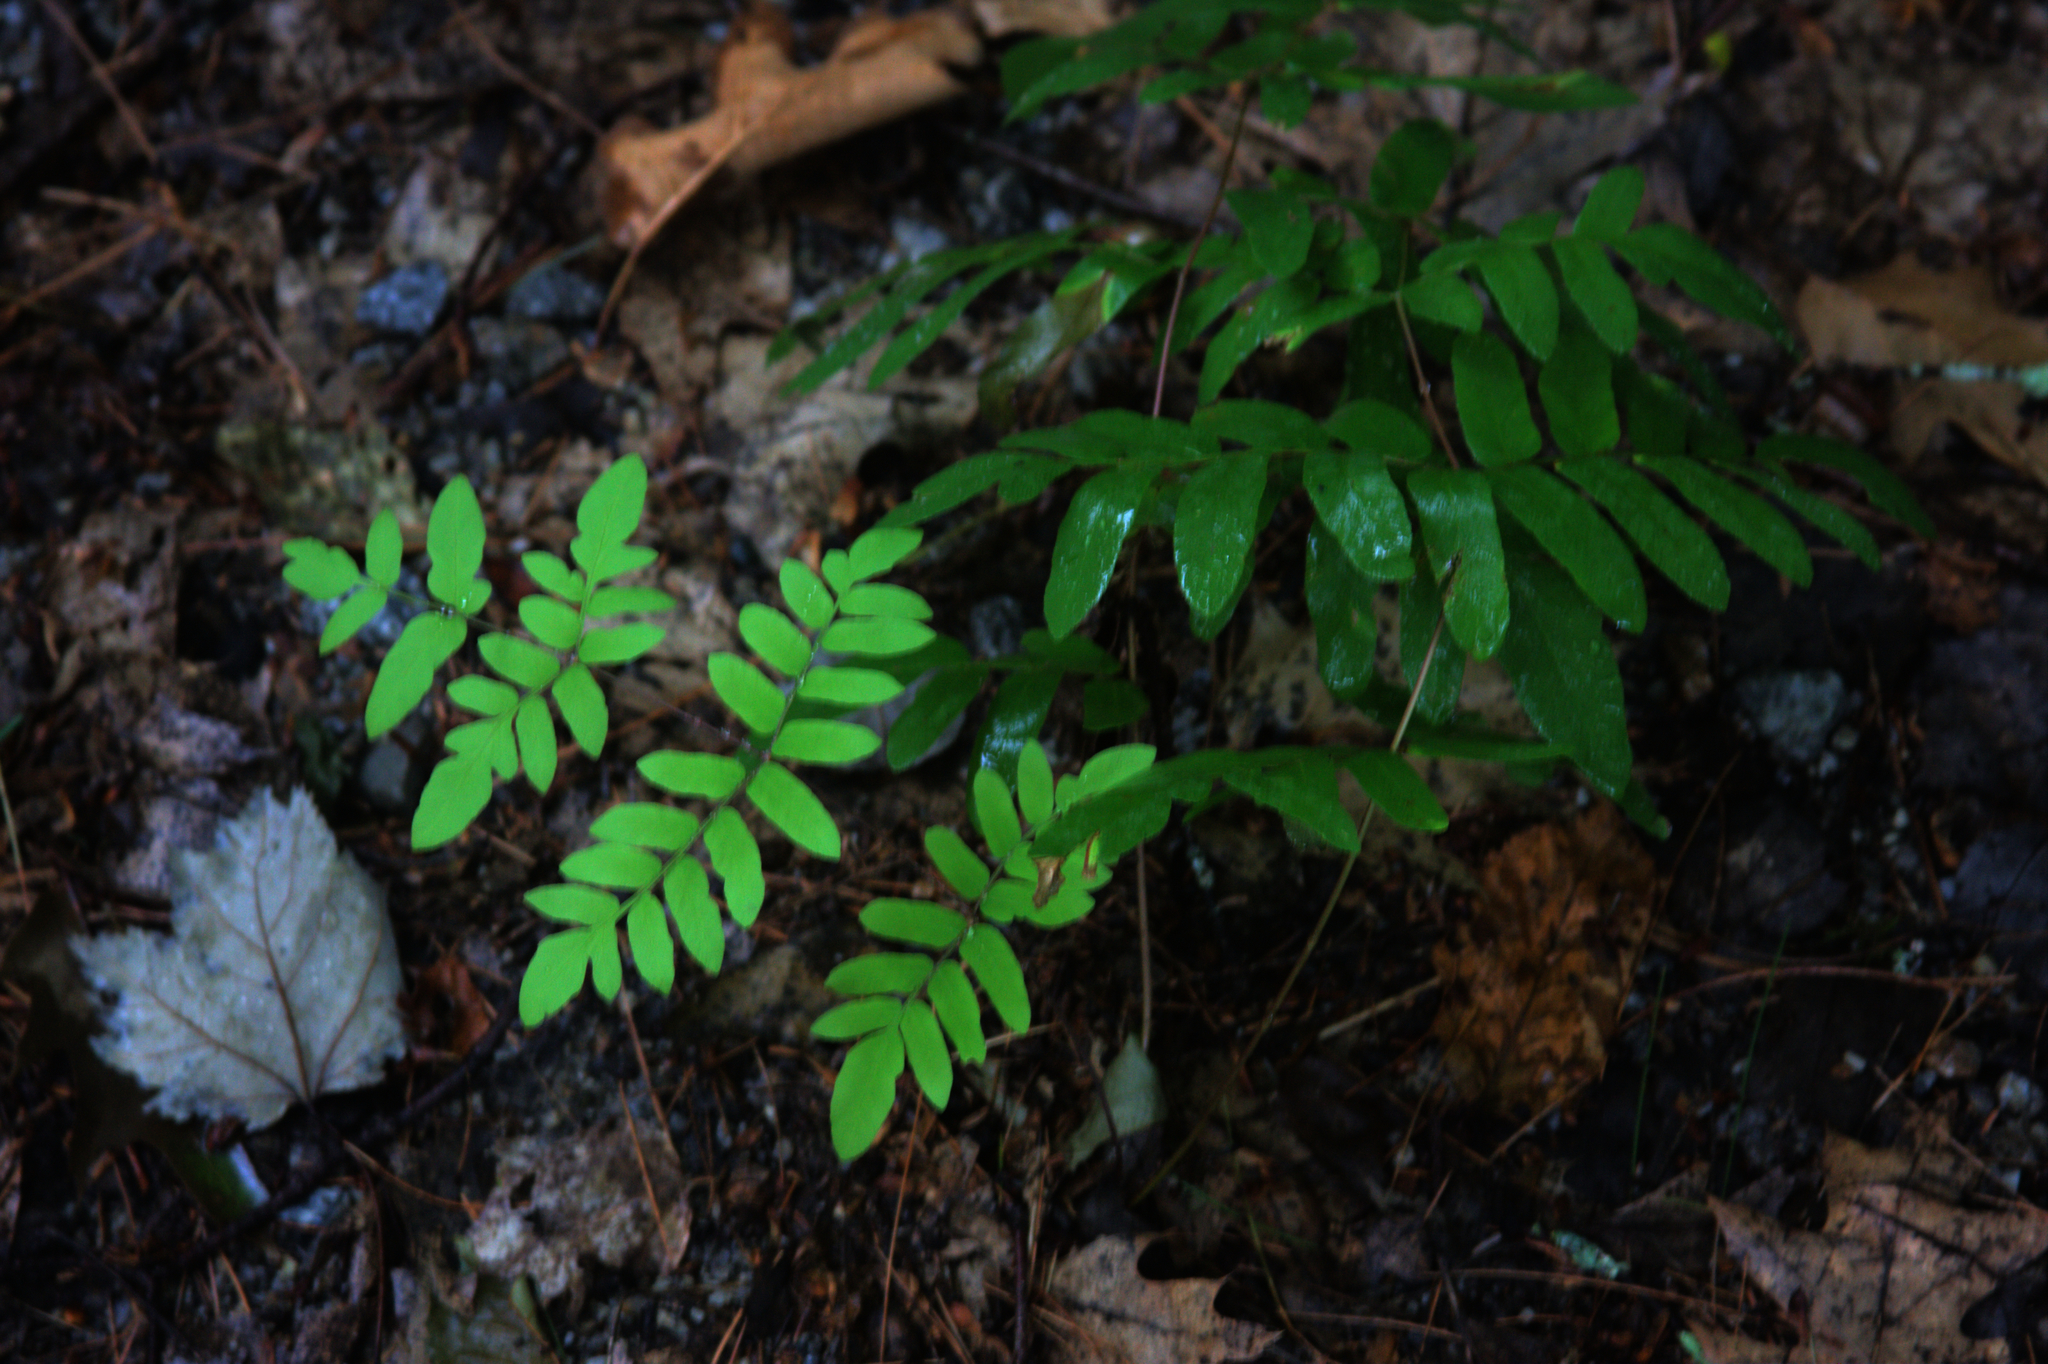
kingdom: Plantae
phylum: Tracheophyta
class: Polypodiopsida
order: Osmundales
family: Osmundaceae
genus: Osmunda
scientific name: Osmunda spectabilis
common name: American royal fern
